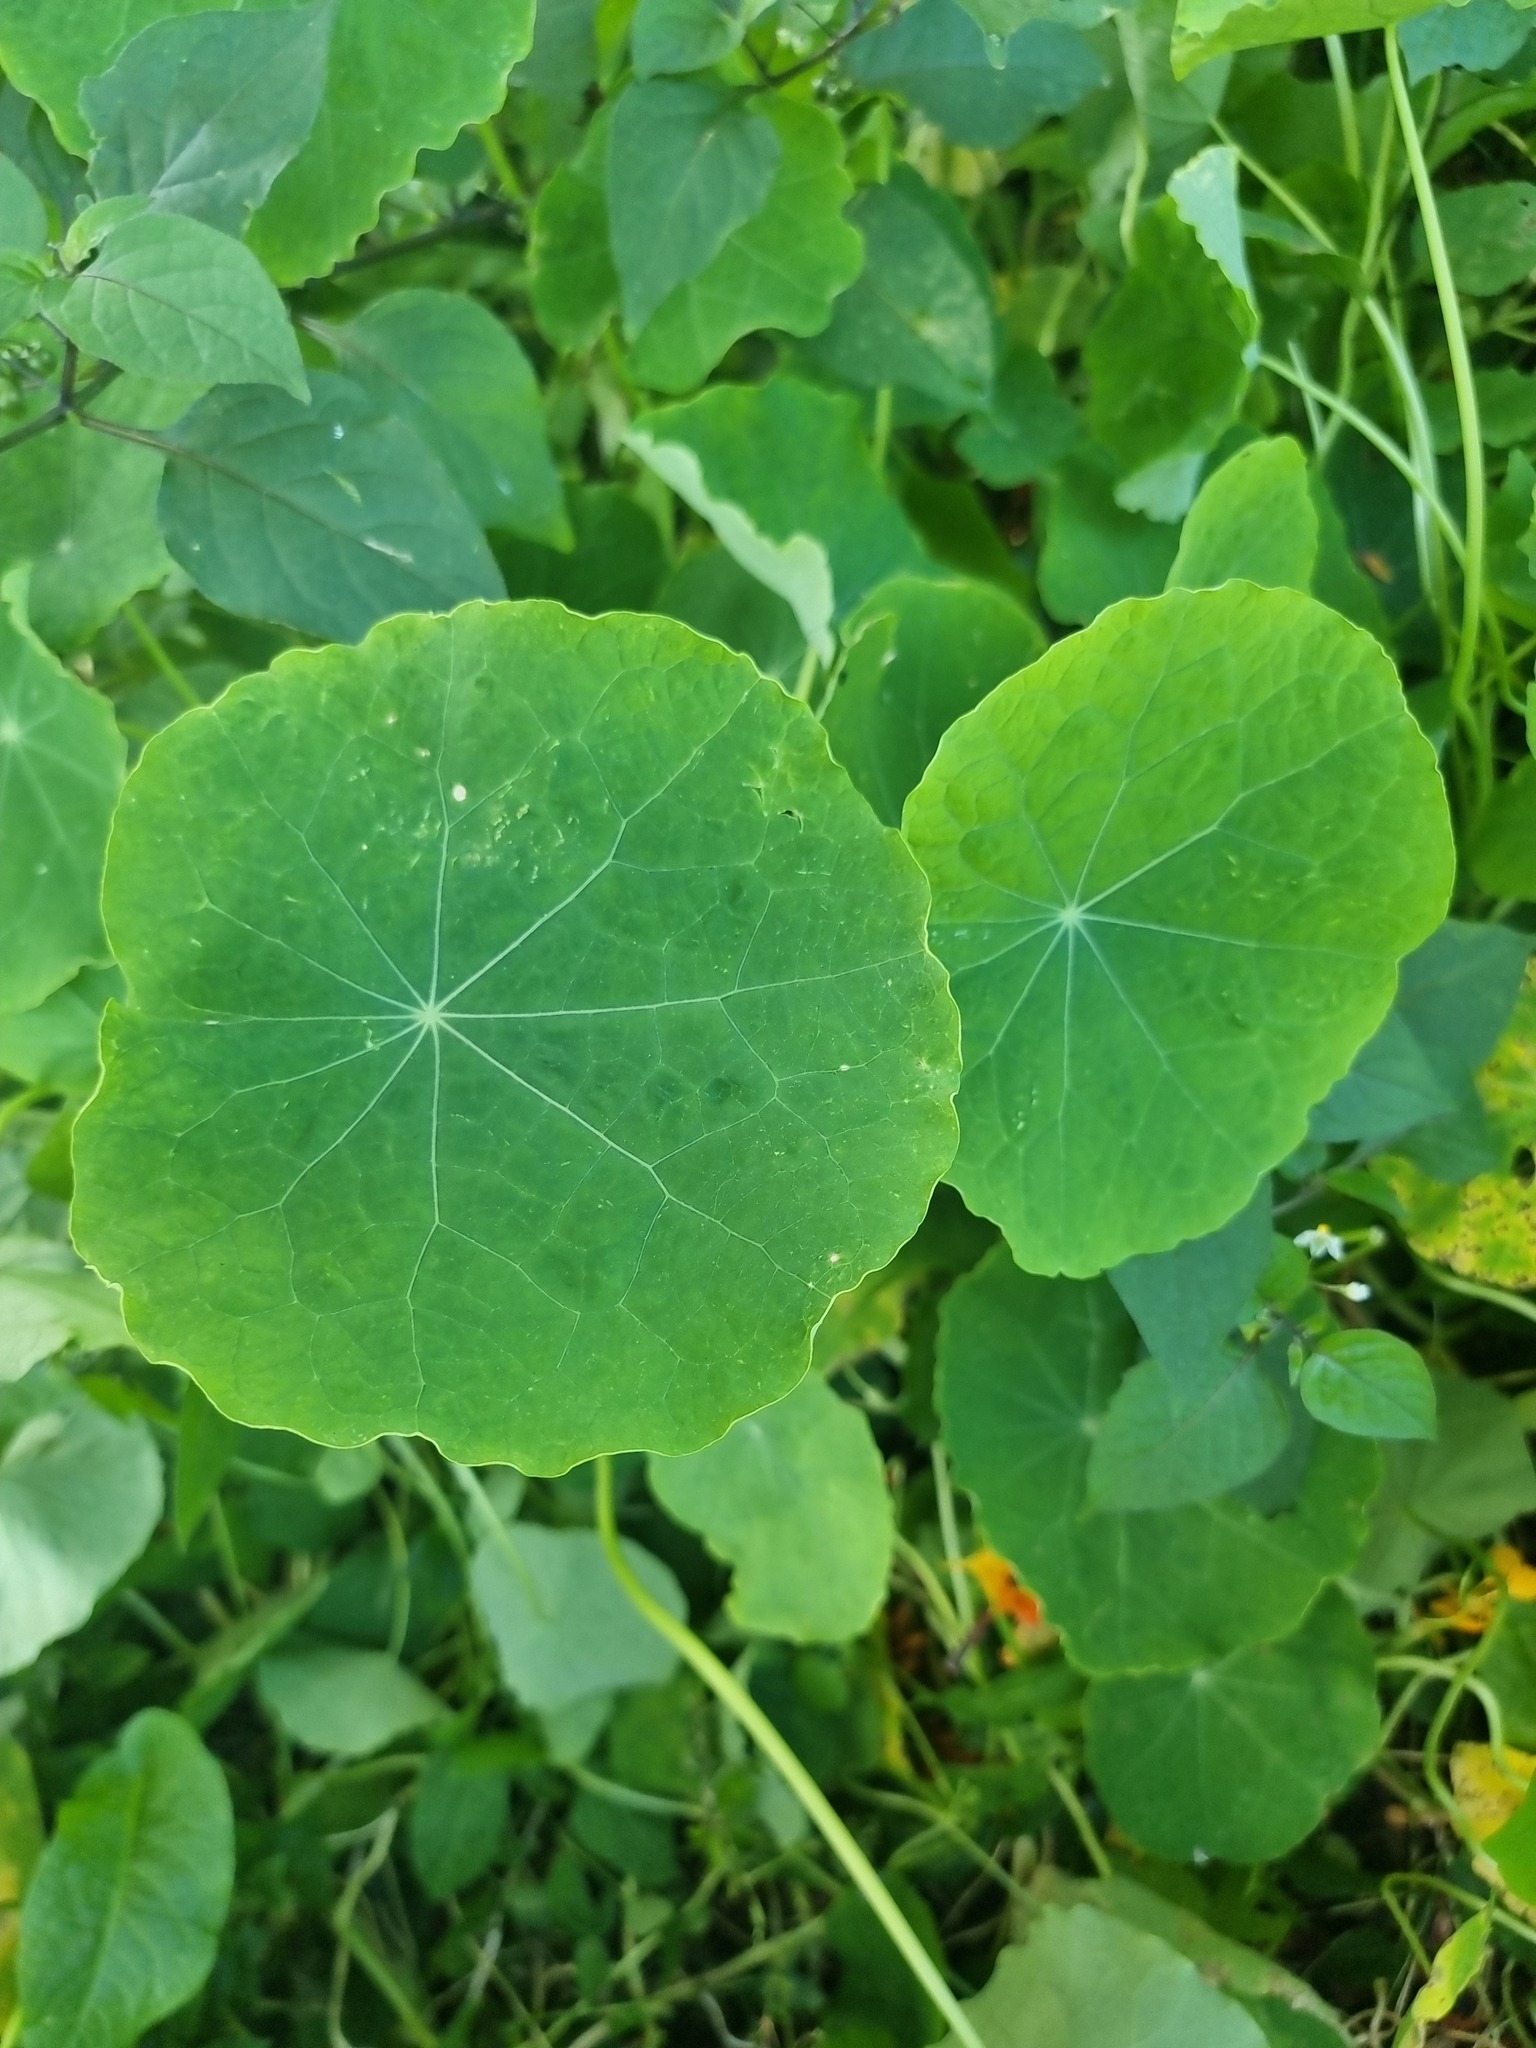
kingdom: Plantae
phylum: Tracheophyta
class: Magnoliopsida
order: Brassicales
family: Tropaeolaceae
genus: Tropaeolum
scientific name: Tropaeolum majus
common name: Nasturtium
